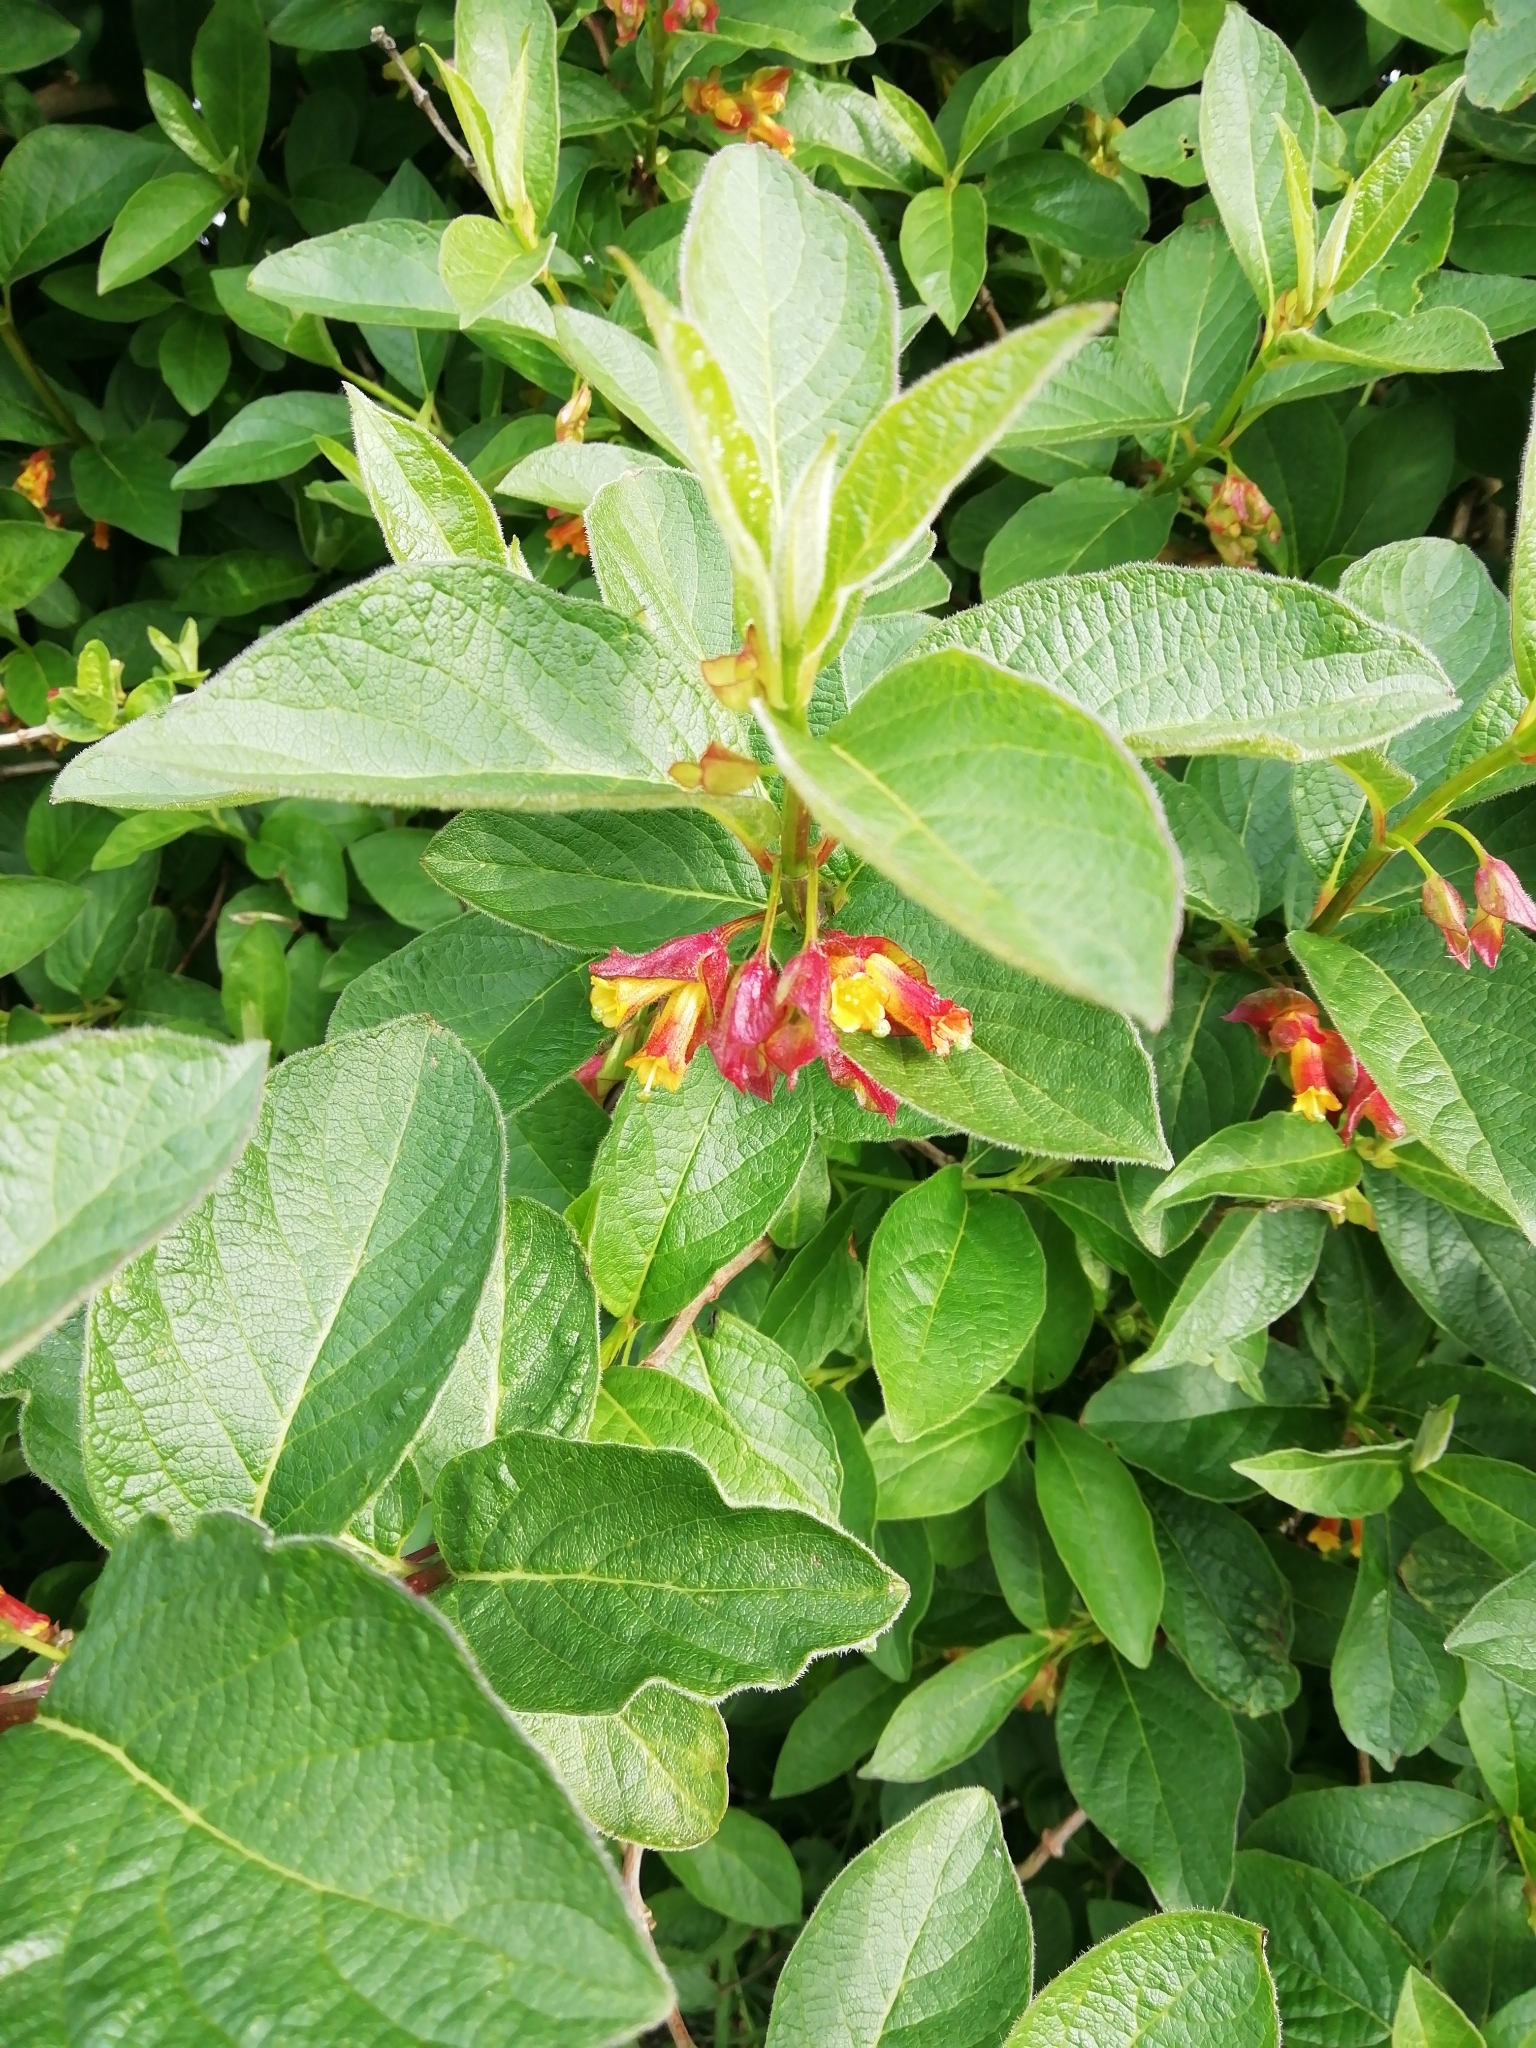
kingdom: Plantae
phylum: Tracheophyta
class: Magnoliopsida
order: Dipsacales
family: Caprifoliaceae
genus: Lonicera
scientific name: Lonicera involucrata
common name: Californian honeysuckle
